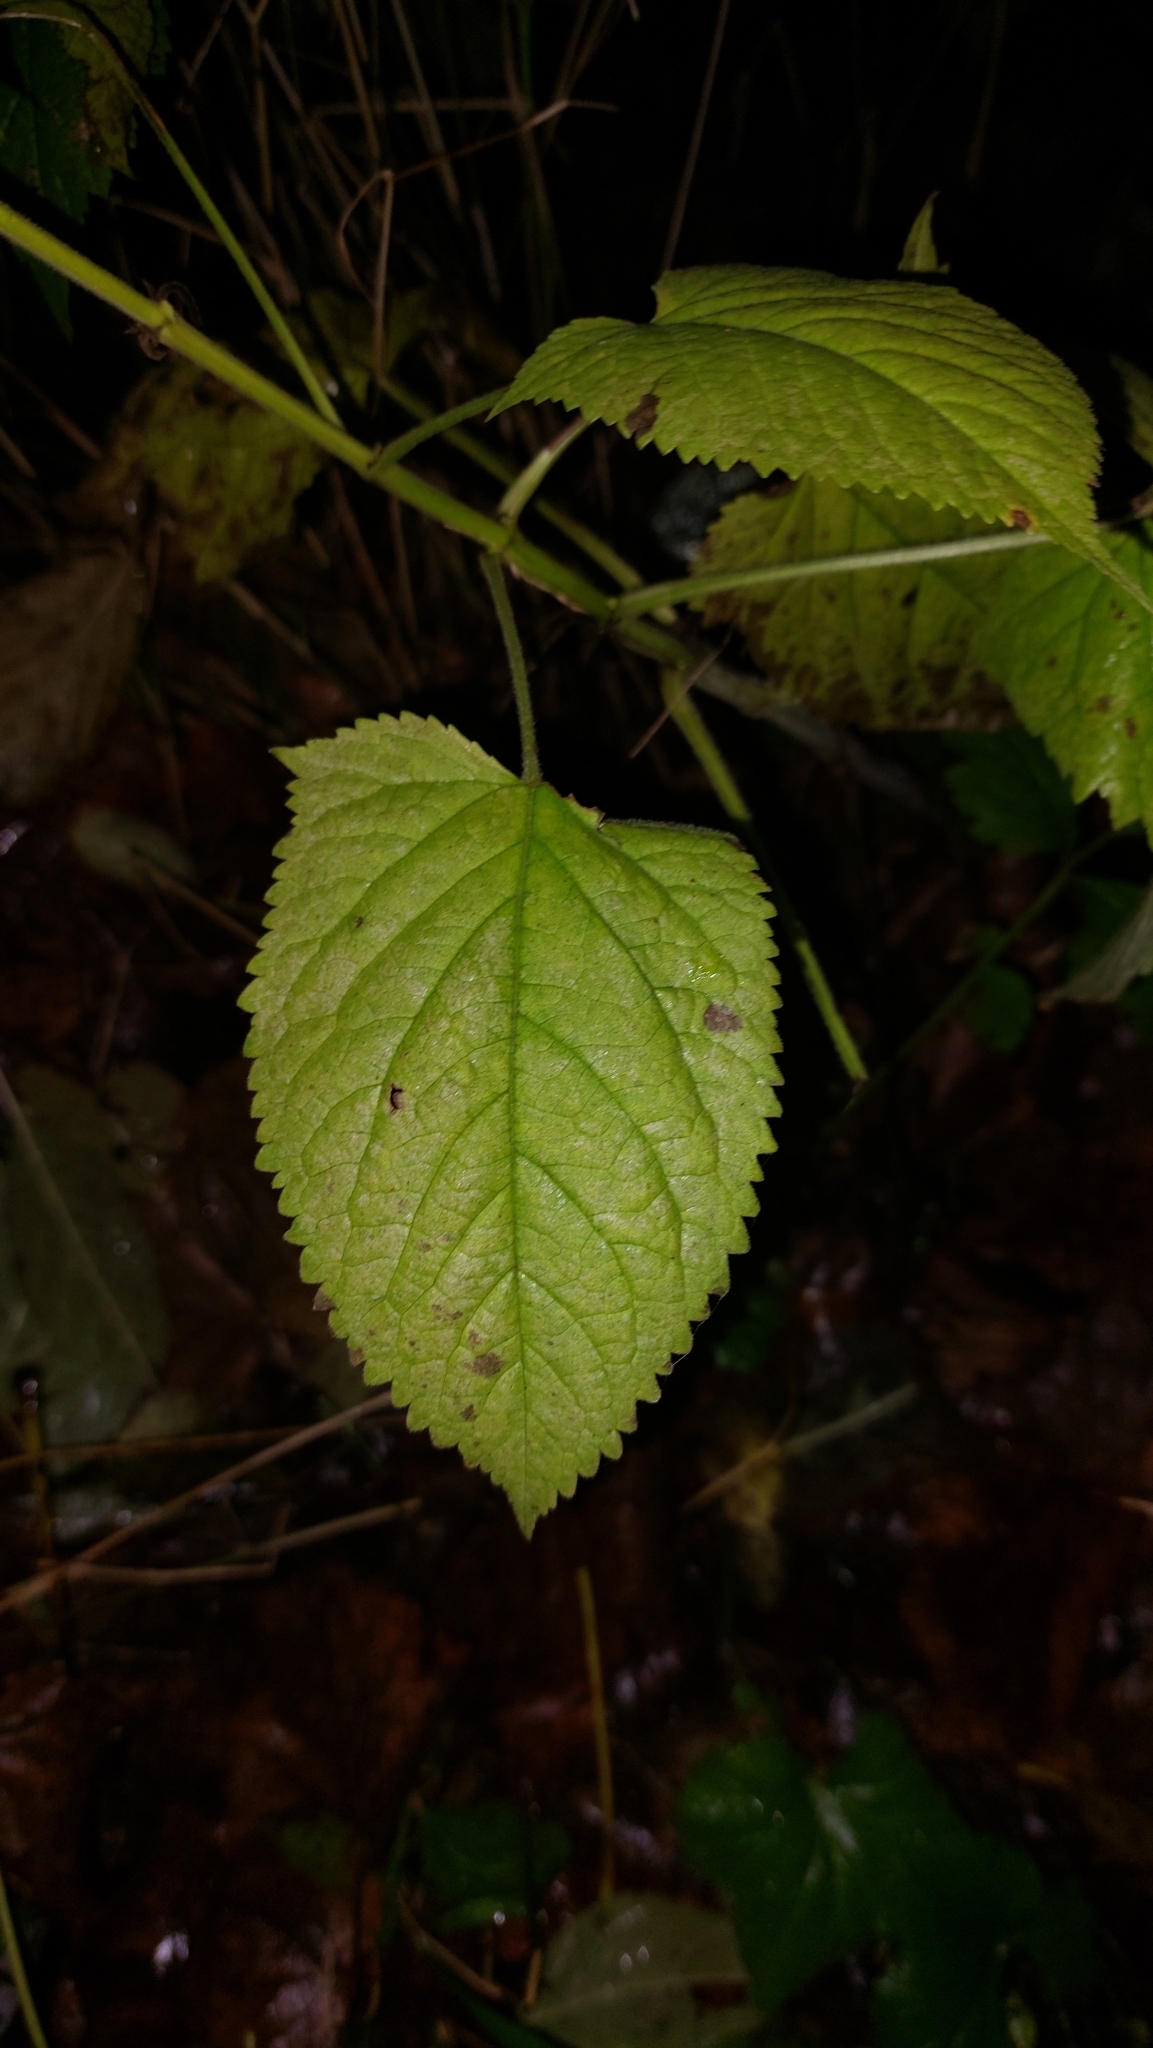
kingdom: Plantae
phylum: Tracheophyta
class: Magnoliopsida
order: Lamiales
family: Lamiaceae
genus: Salvia
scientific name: Salvia glutinosa
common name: Sticky clary
